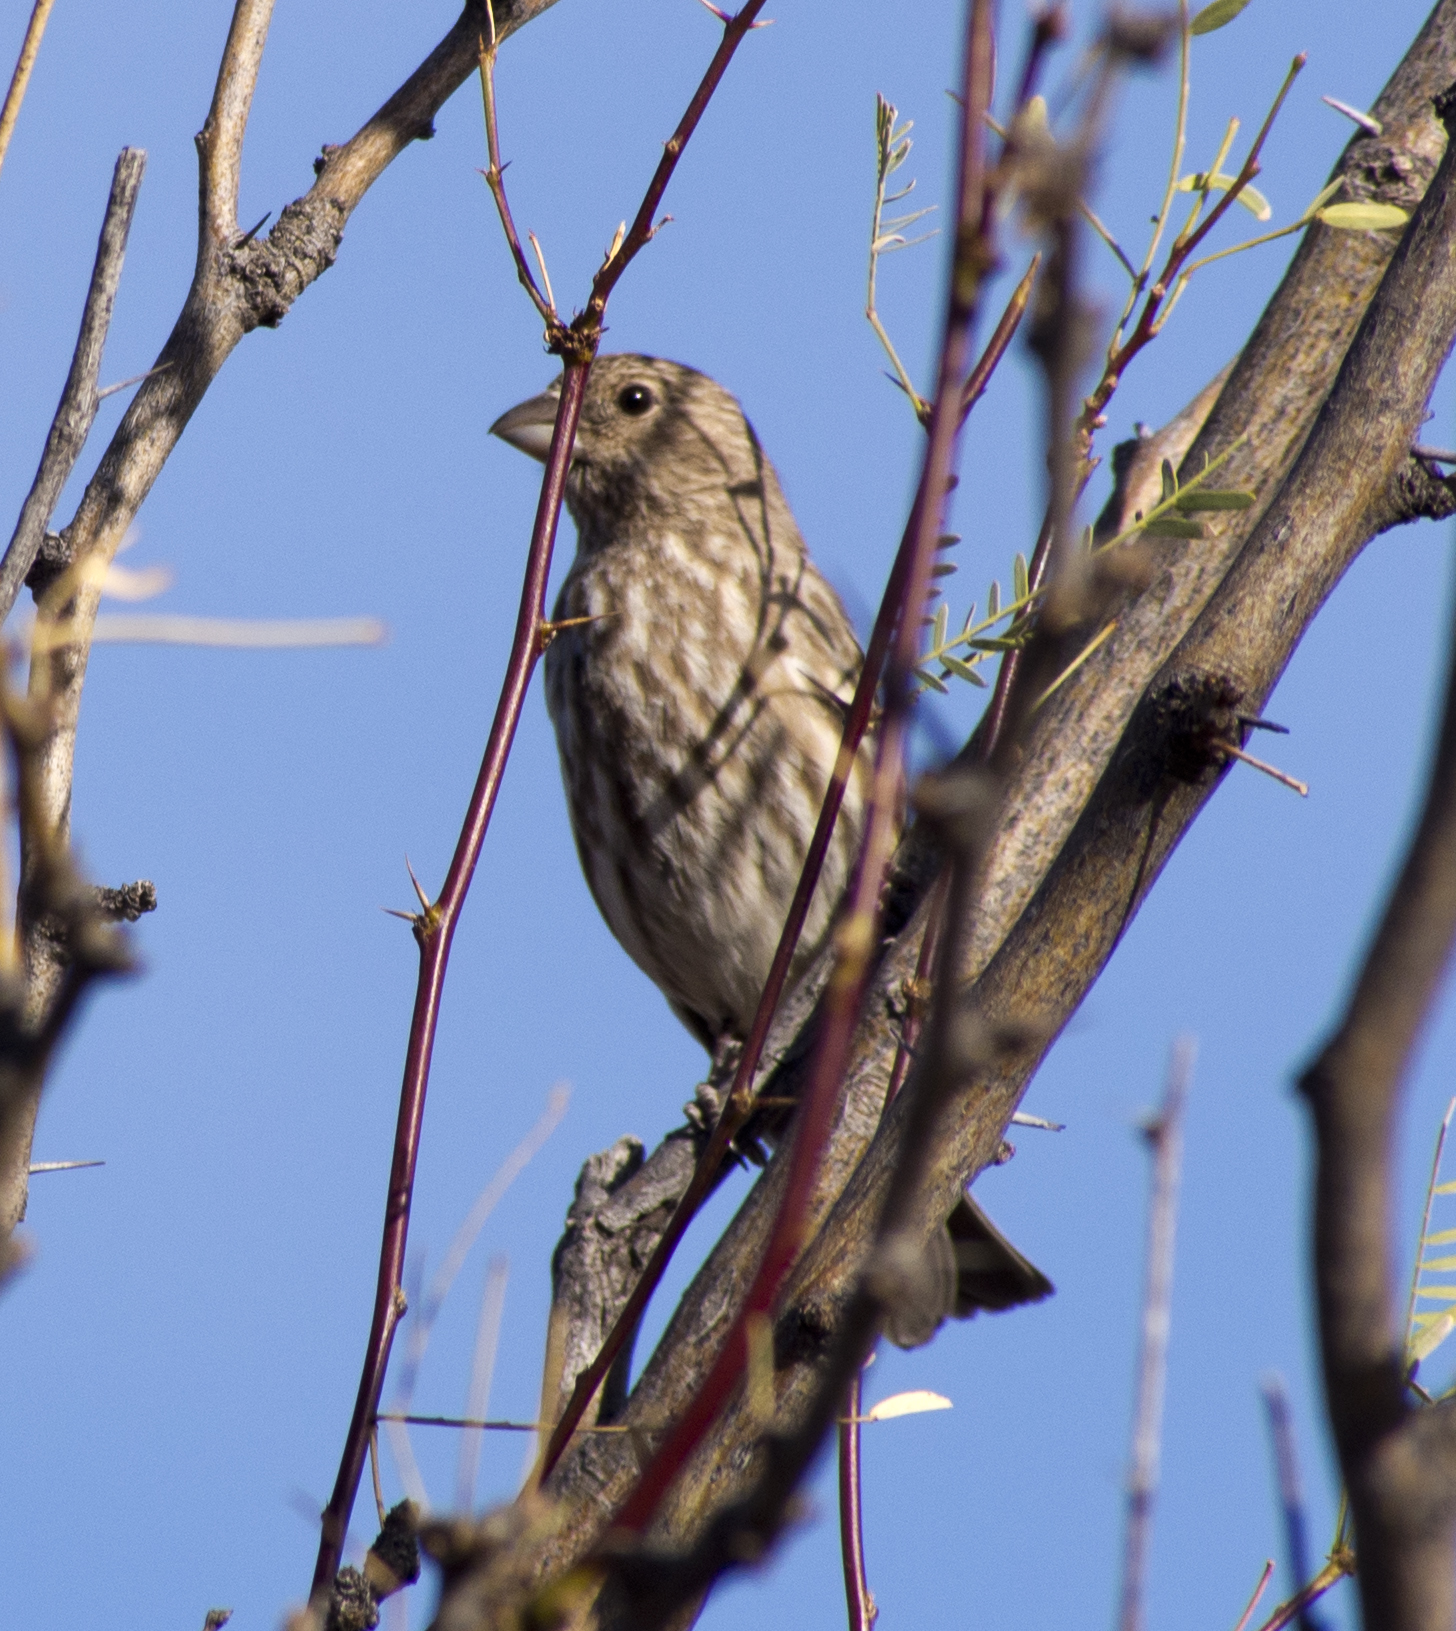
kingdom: Animalia
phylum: Chordata
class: Aves
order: Passeriformes
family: Fringillidae
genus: Haemorhous
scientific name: Haemorhous mexicanus
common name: House finch
